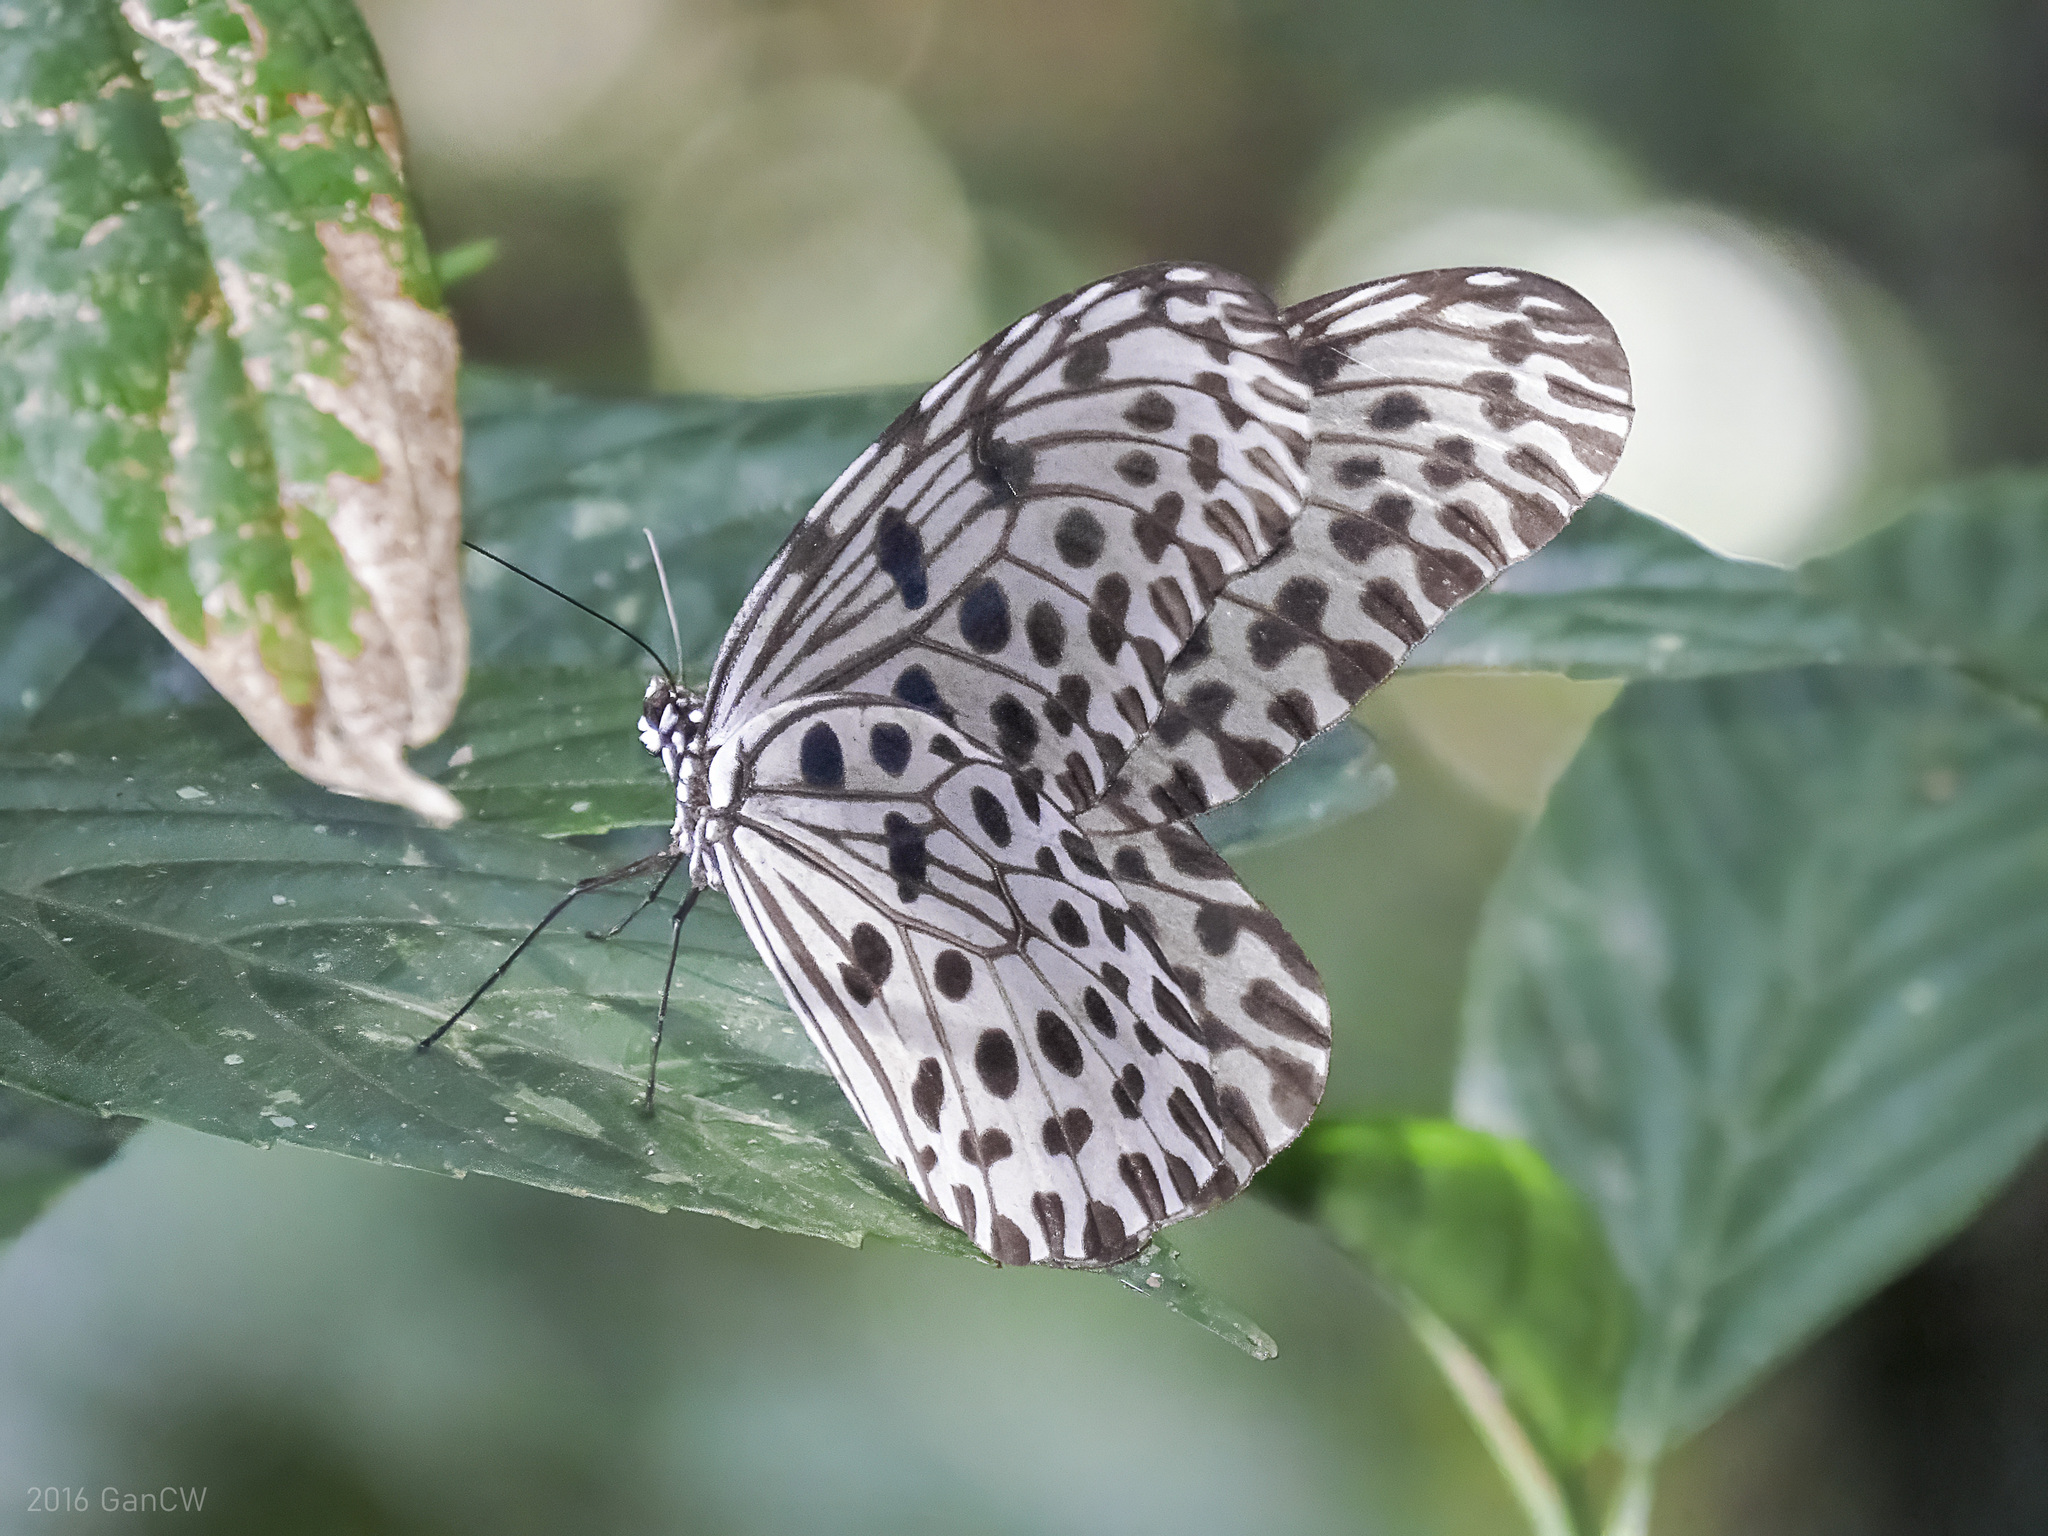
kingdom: Animalia
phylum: Arthropoda
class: Insecta
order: Lepidoptera
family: Nymphalidae
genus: Idea
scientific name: Idea stolli
